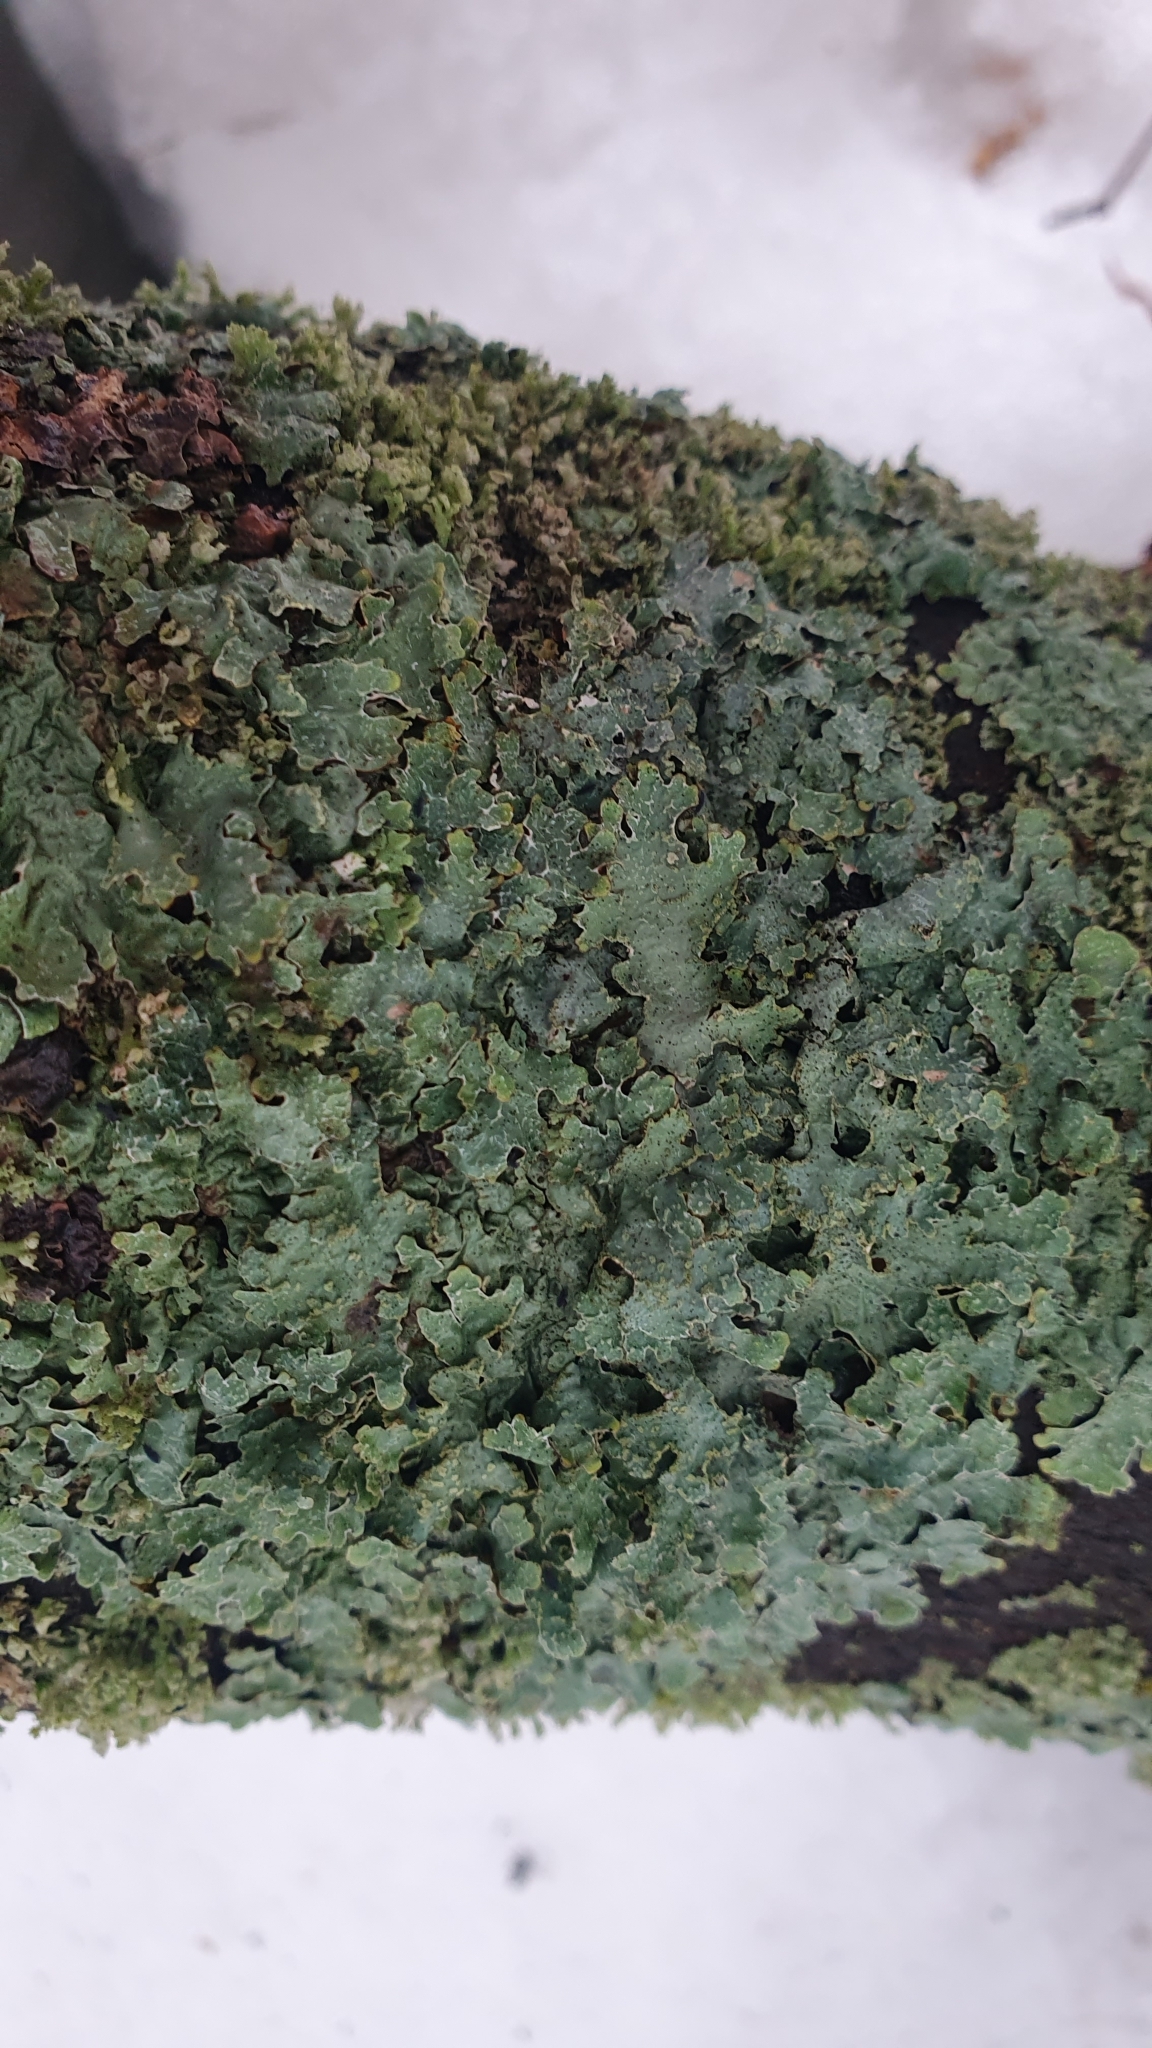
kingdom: Fungi
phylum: Ascomycota
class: Lecanoromycetes
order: Lecanorales
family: Parmeliaceae
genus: Parmelia
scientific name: Parmelia sulcata
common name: Netted shield lichen
